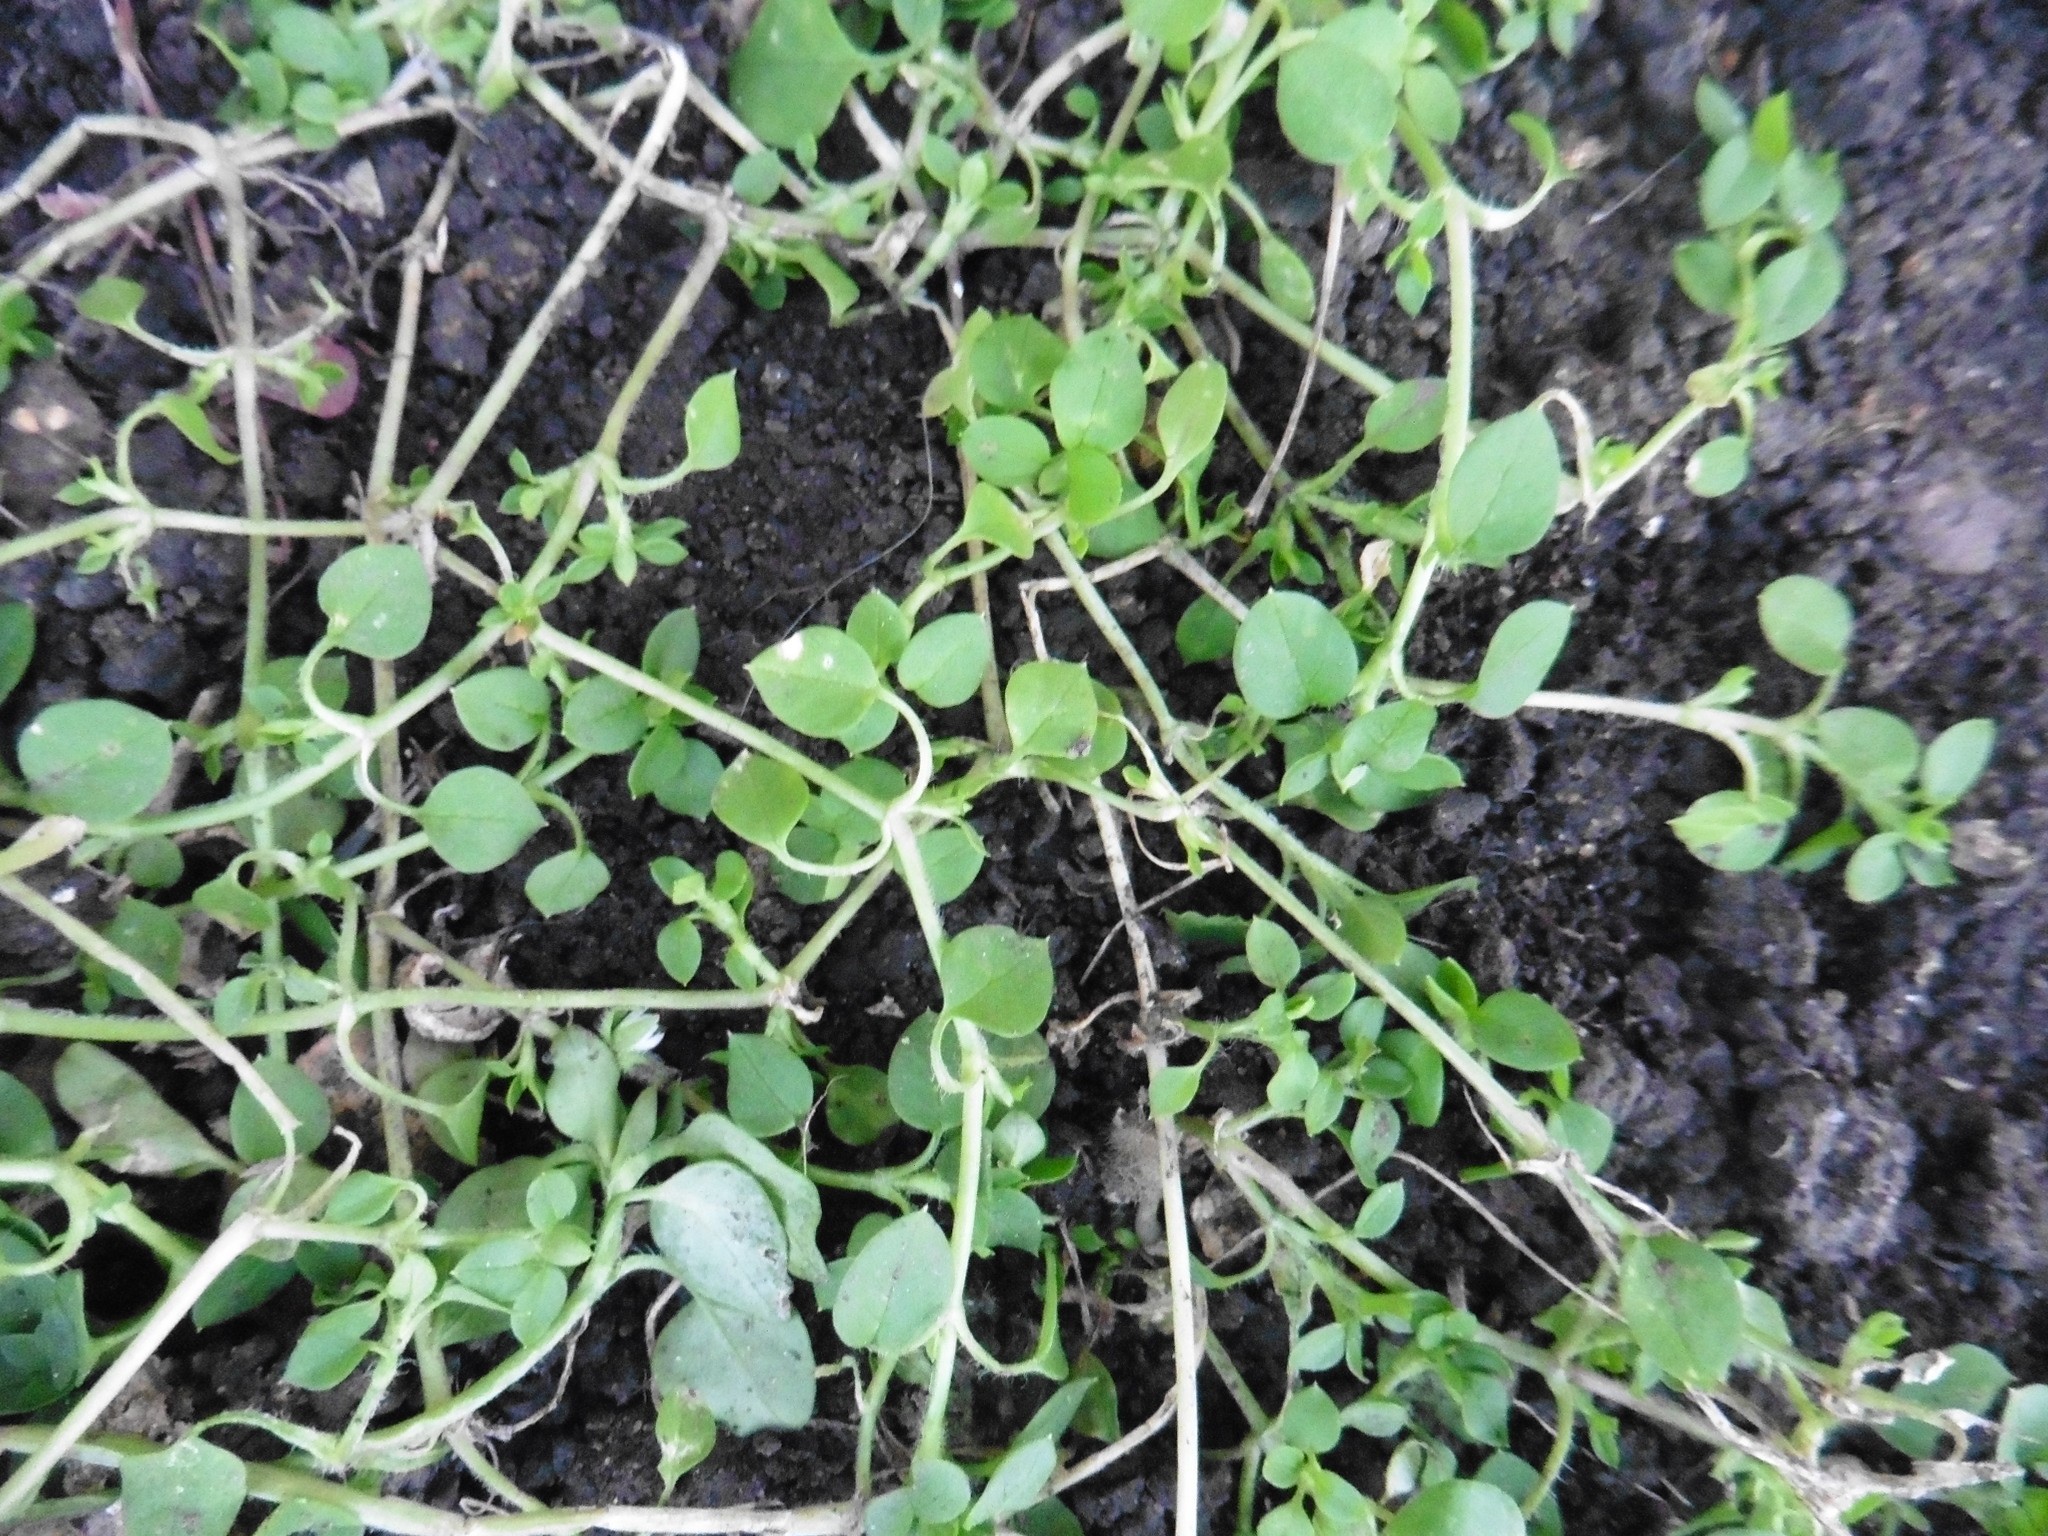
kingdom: Plantae
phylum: Tracheophyta
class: Magnoliopsida
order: Caryophyllales
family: Caryophyllaceae
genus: Stellaria
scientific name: Stellaria media
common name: Common chickweed
